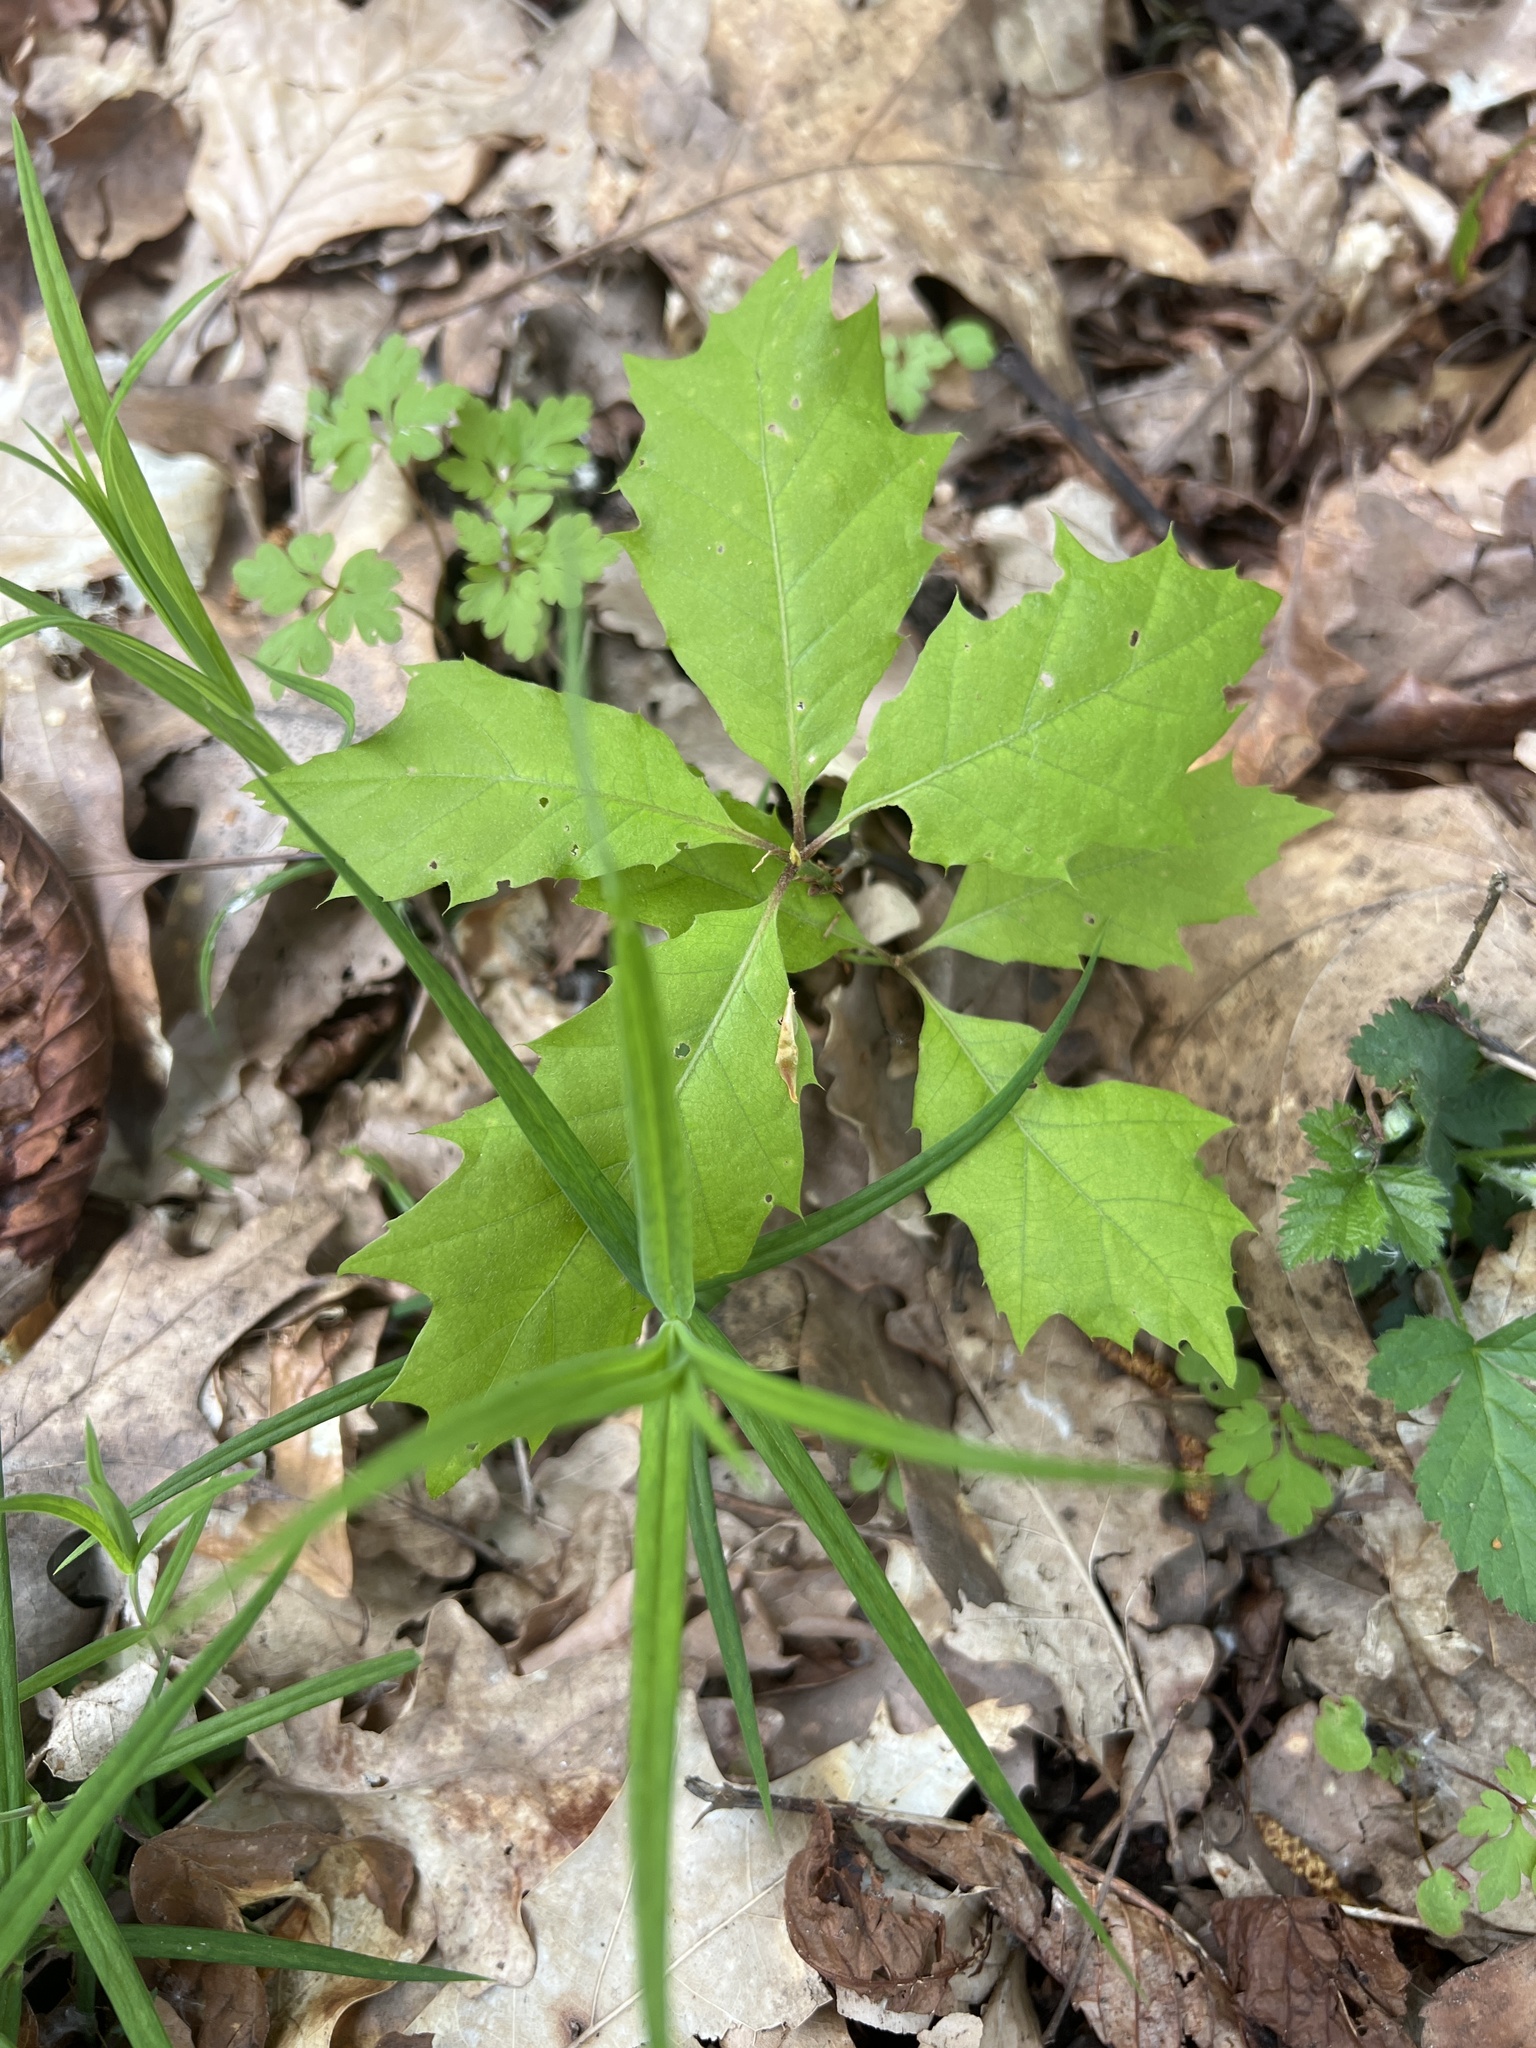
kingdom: Plantae
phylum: Tracheophyta
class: Magnoliopsida
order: Fagales
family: Fagaceae
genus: Quercus
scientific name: Quercus rubra
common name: Red oak
